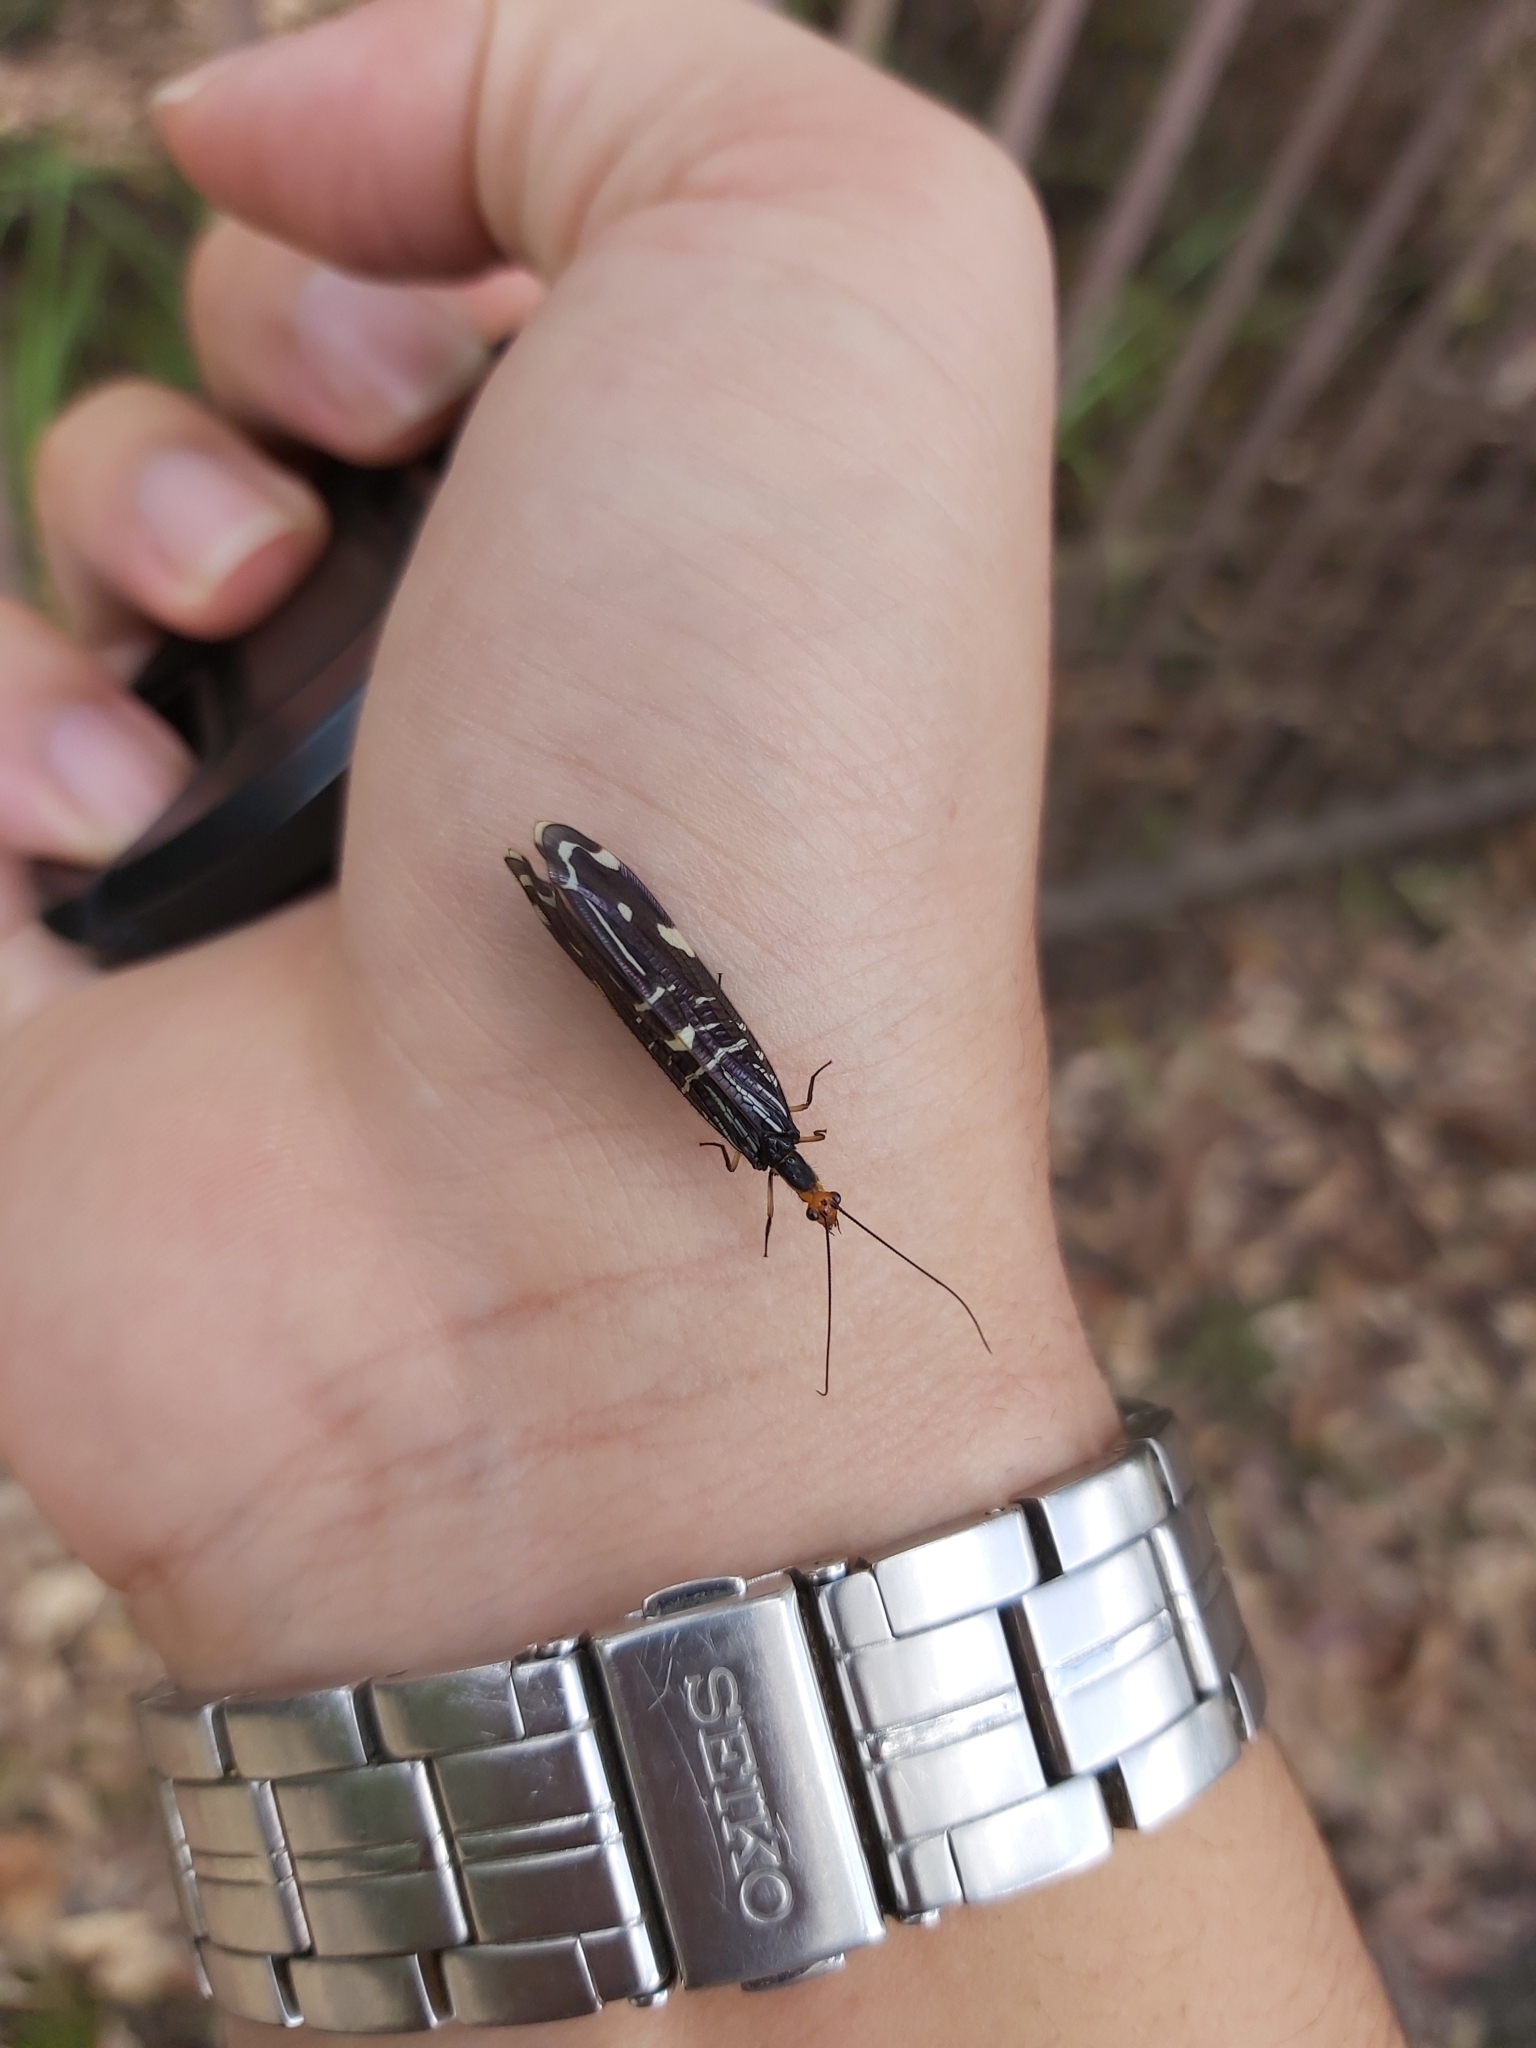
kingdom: Animalia
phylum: Arthropoda
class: Insecta
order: Neuroptera
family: Osmylidae
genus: Porismus
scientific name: Porismus strigatus
